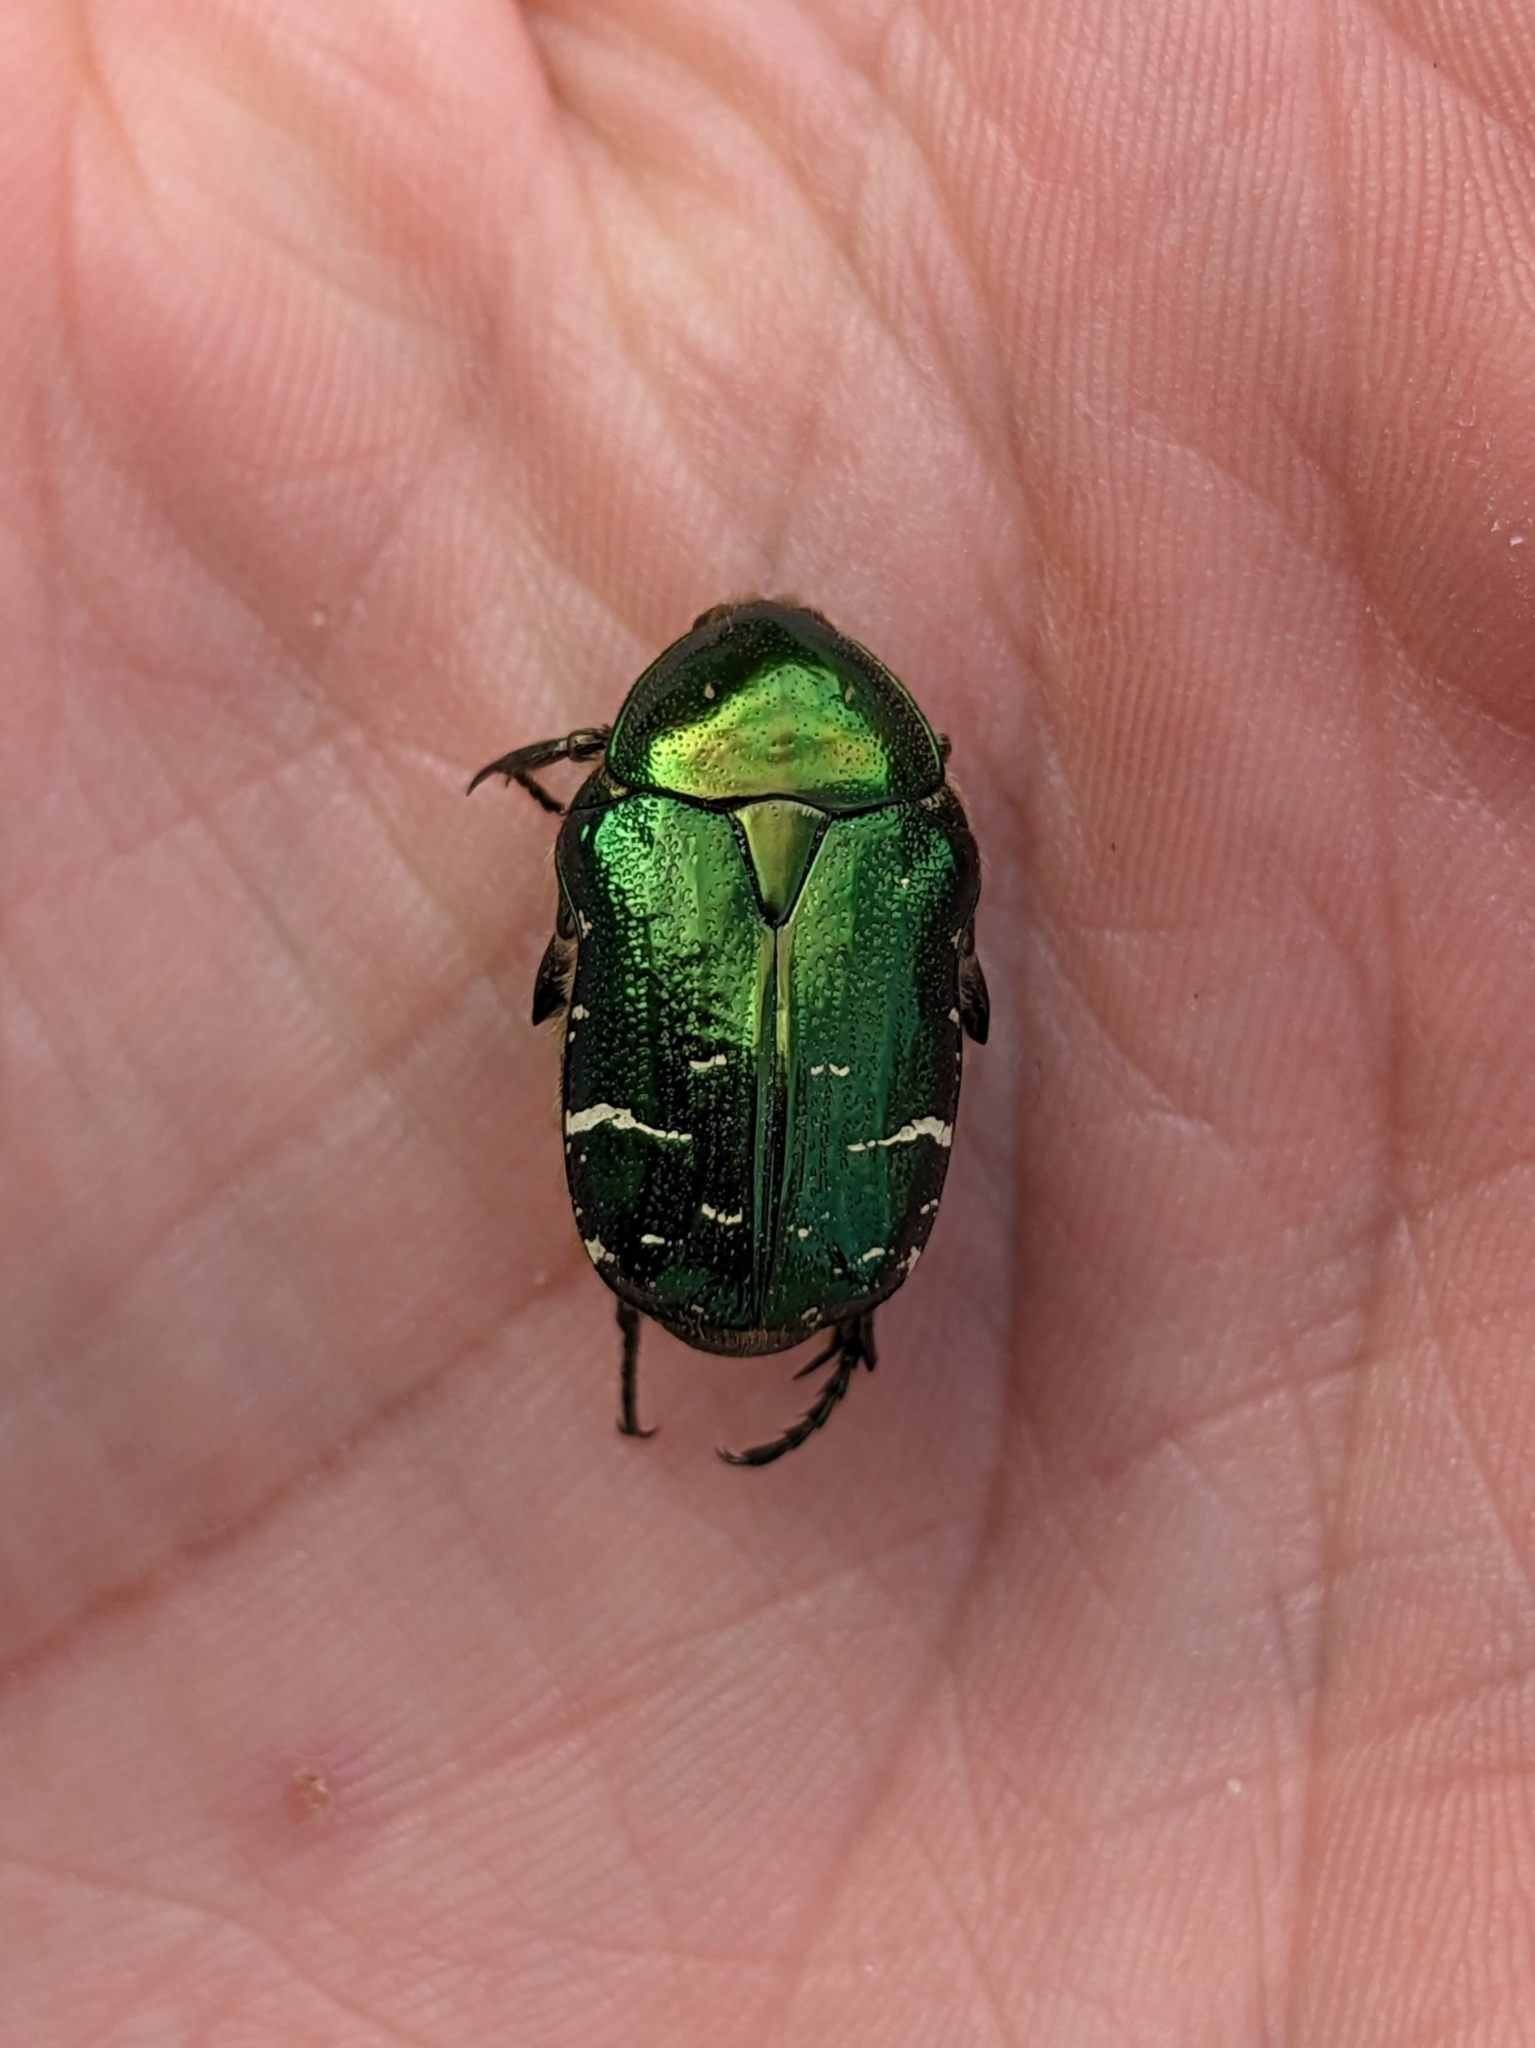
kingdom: Animalia
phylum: Arthropoda
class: Insecta
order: Coleoptera
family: Scarabaeidae
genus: Cetonia
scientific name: Cetonia aurata
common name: Rose chafer
